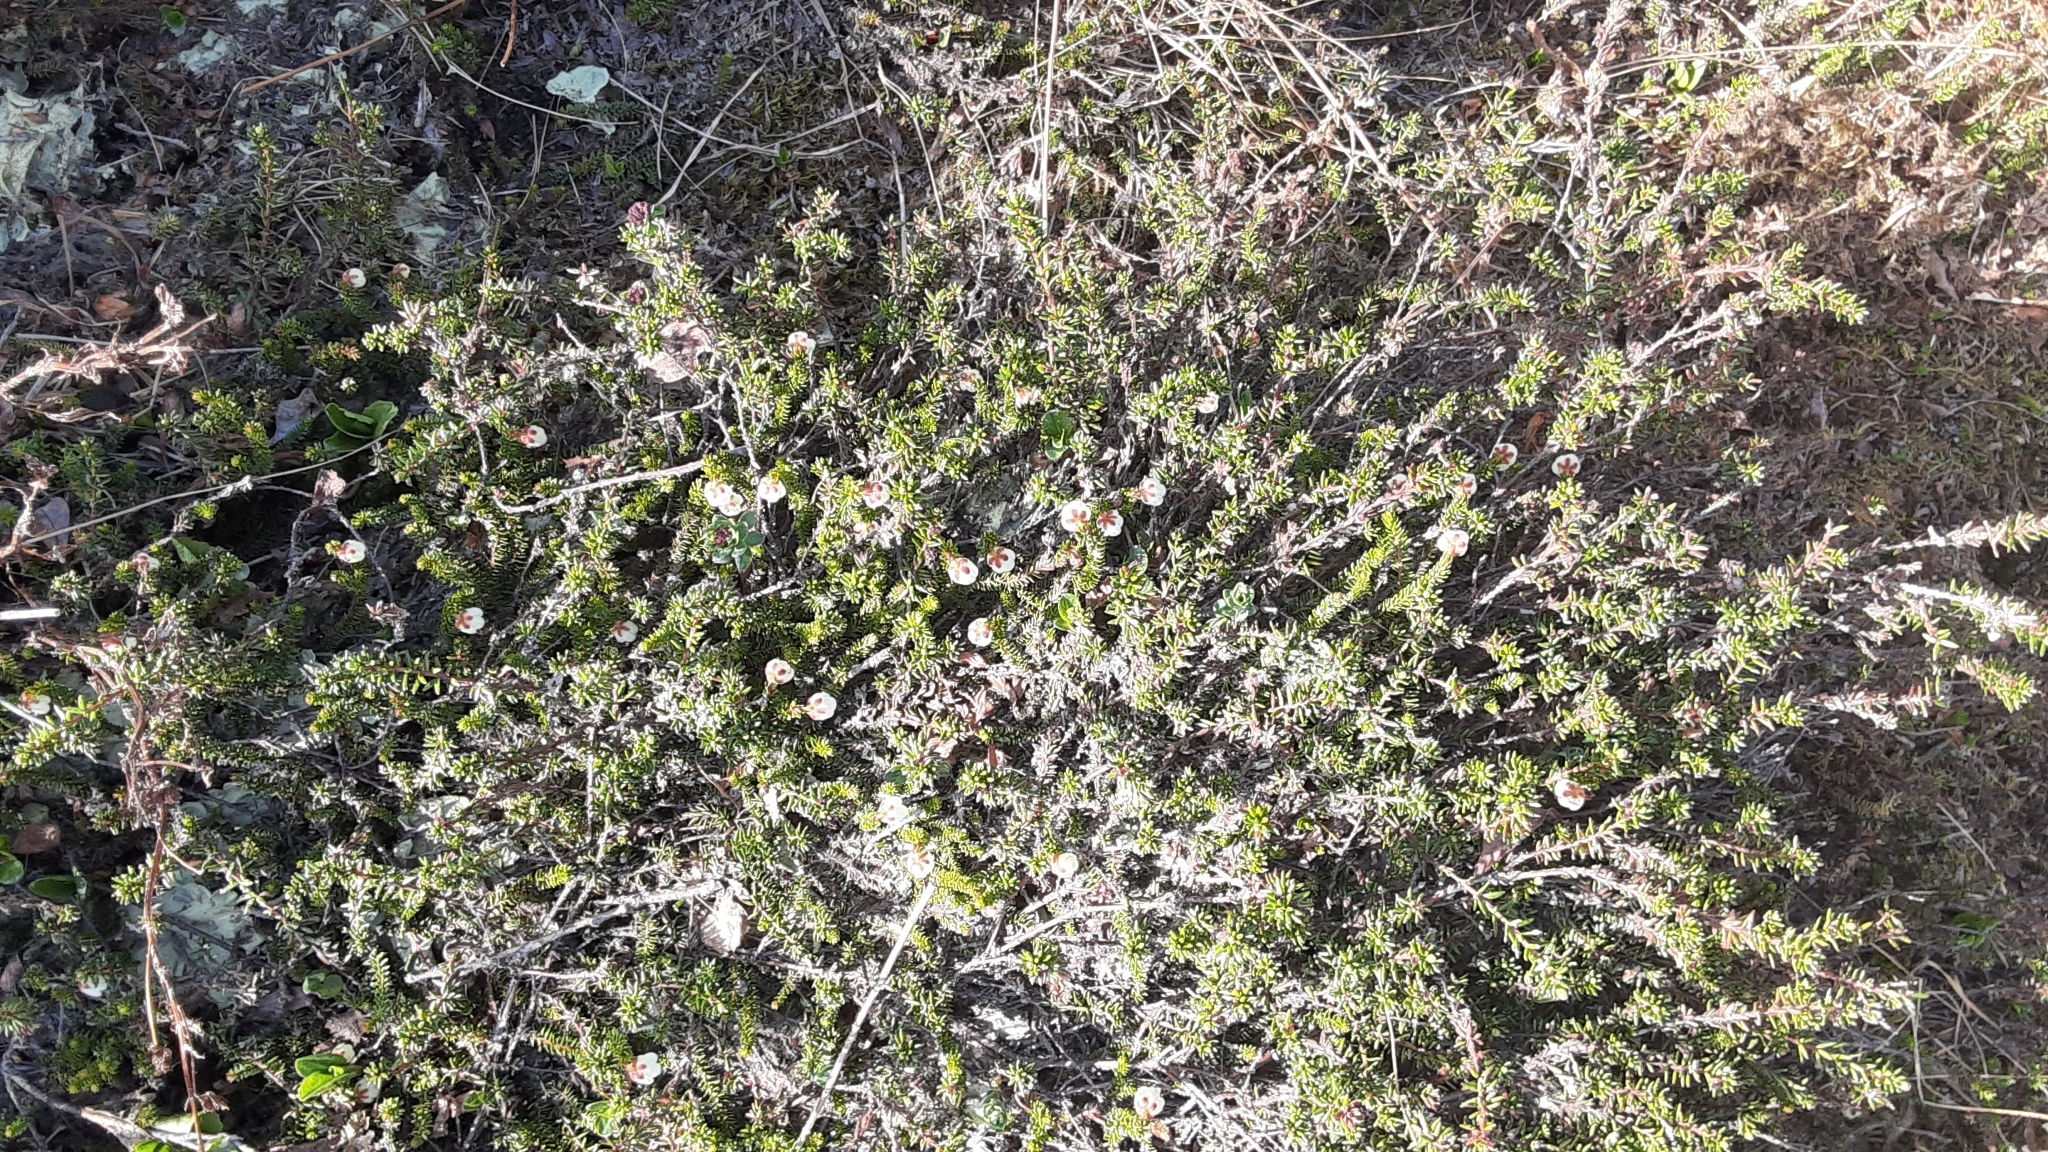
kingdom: Plantae
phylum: Tracheophyta
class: Magnoliopsida
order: Ericales
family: Ericaceae
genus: Harrimanella
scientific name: Harrimanella stelleriana
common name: Alaska bell heather
